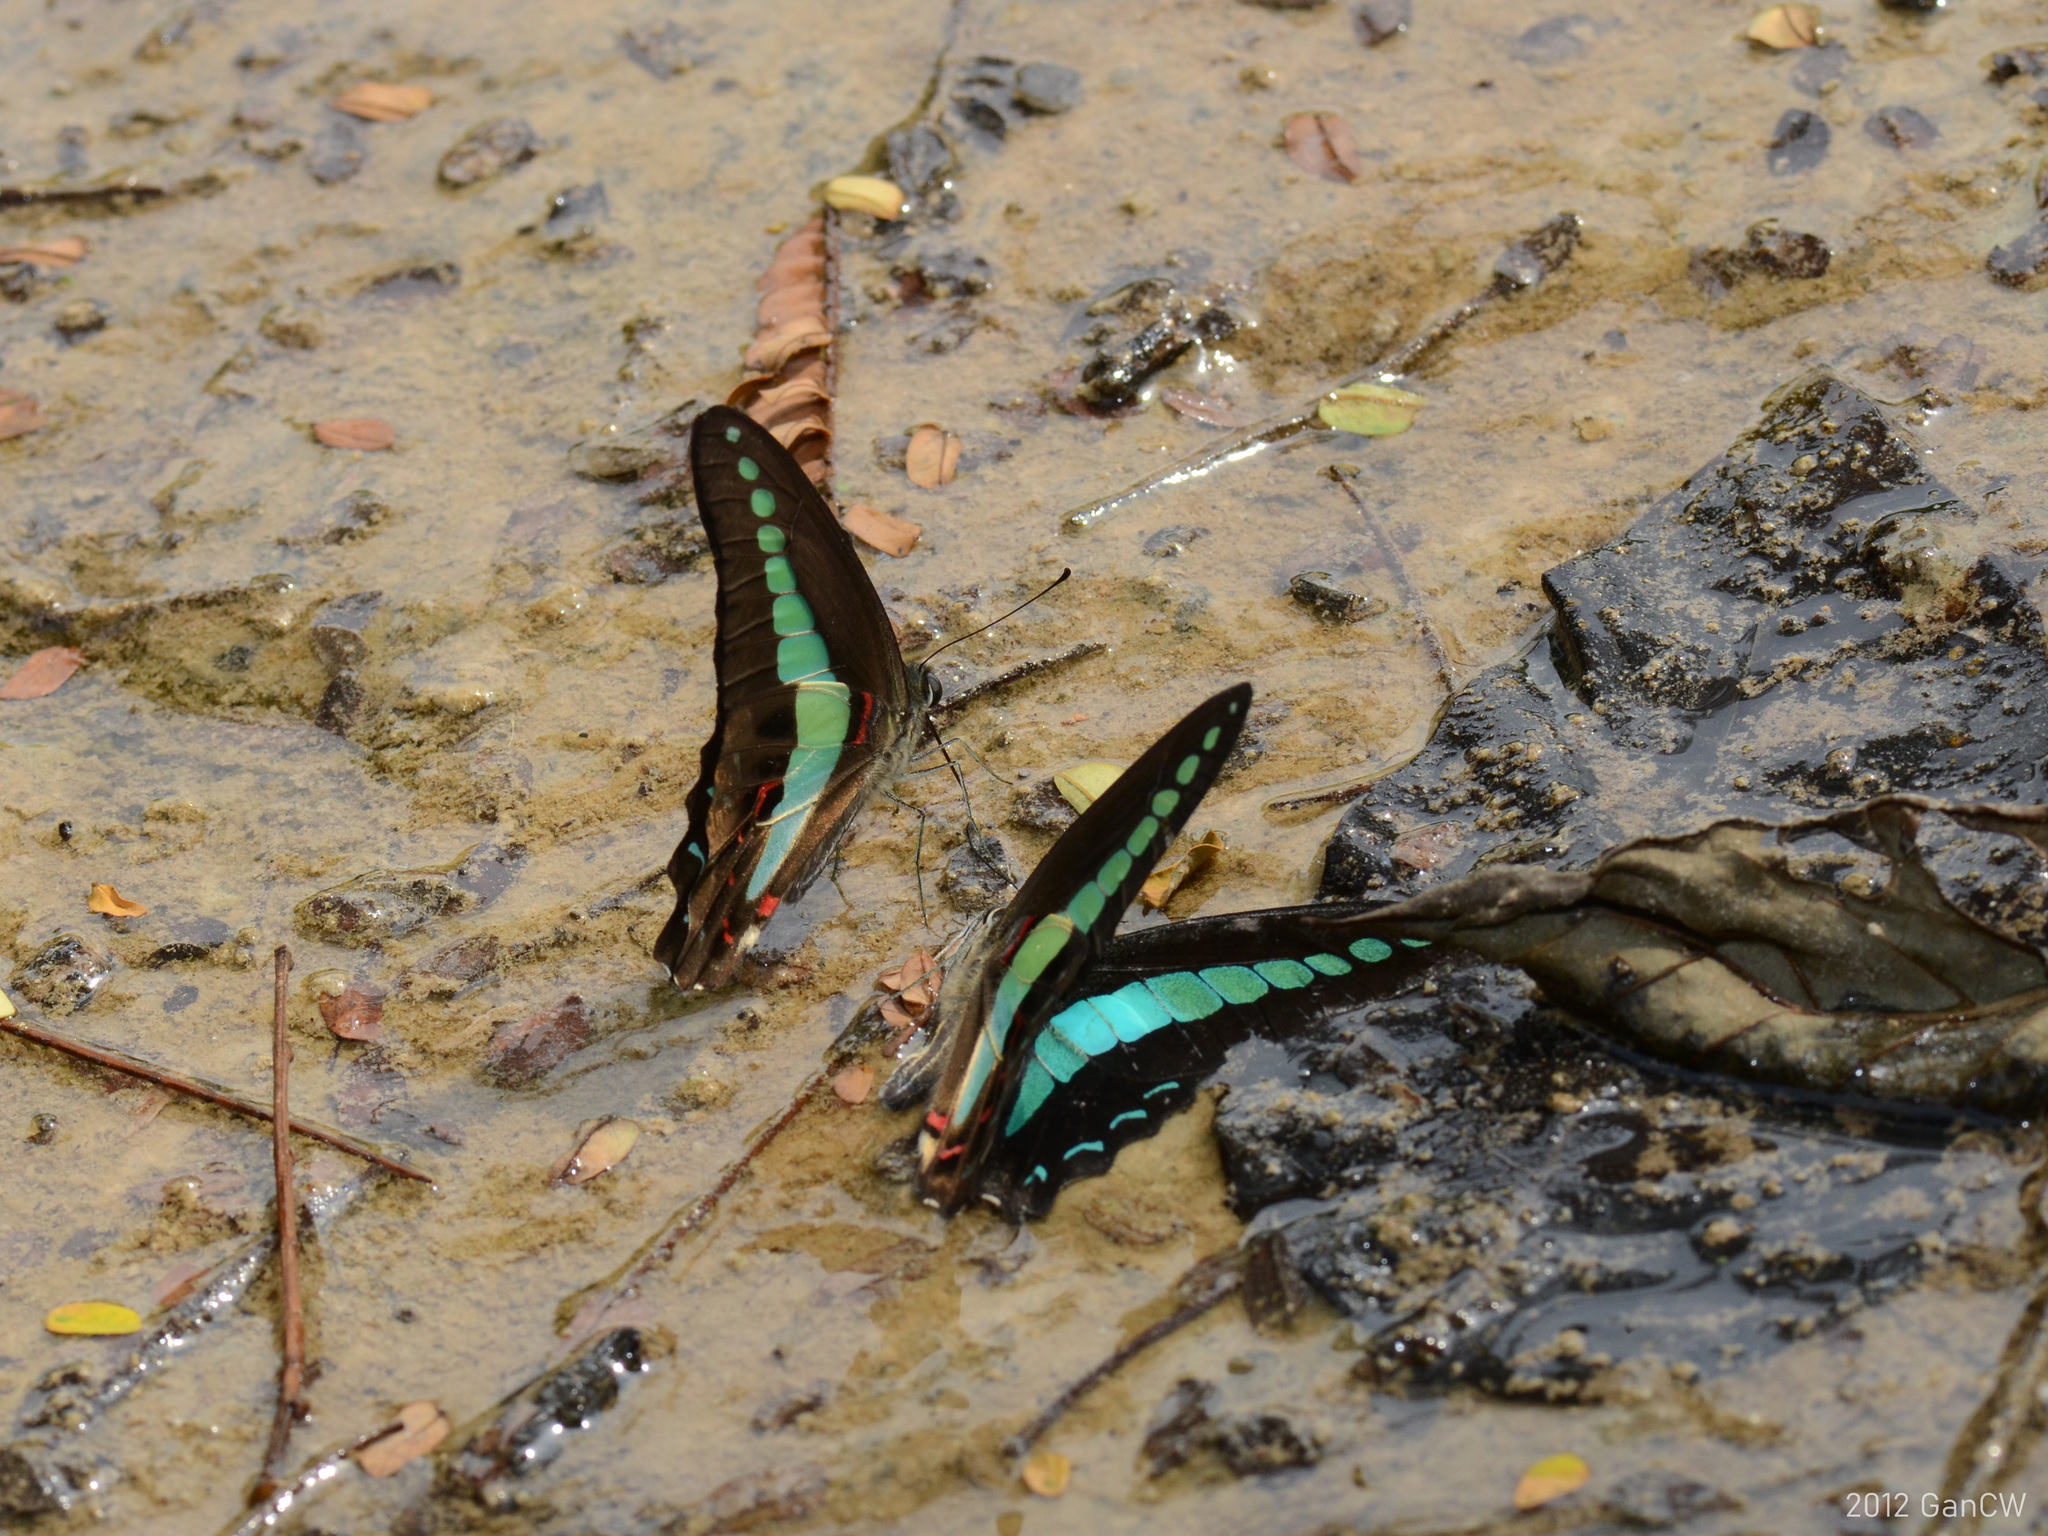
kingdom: Fungi
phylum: Ascomycota
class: Sordariomycetes
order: Microascales
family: Microascaceae
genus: Graphium
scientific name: Graphium sarpedon
